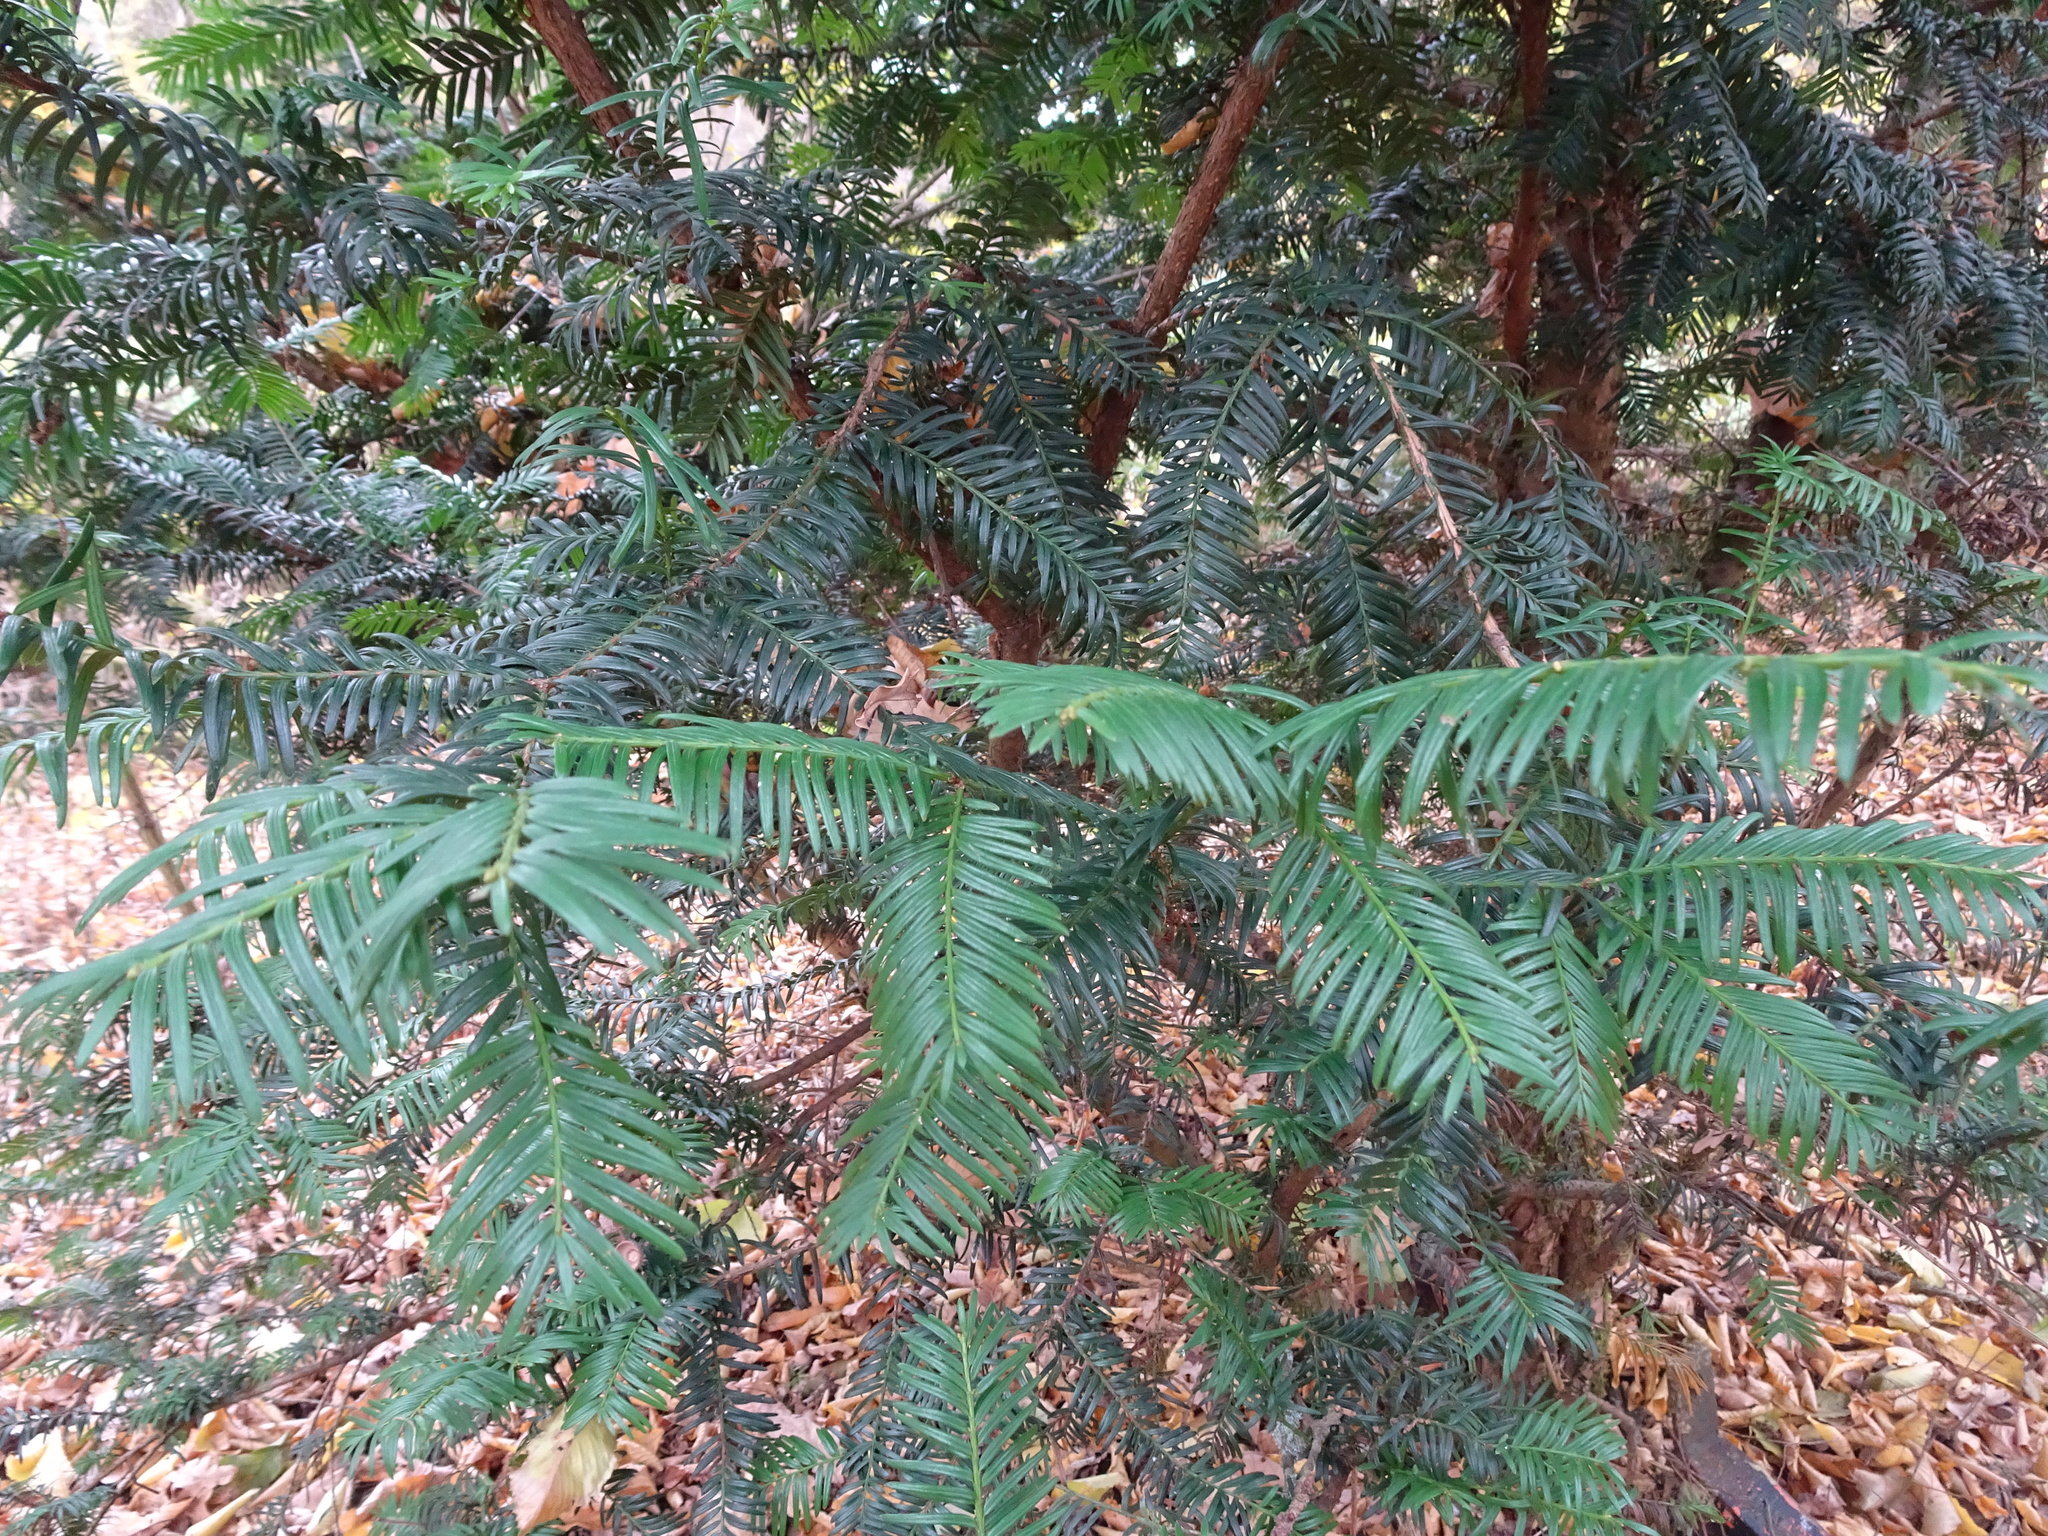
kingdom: Plantae
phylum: Tracheophyta
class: Pinopsida
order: Pinales
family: Taxaceae
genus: Taxus
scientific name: Taxus baccata
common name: Yew
